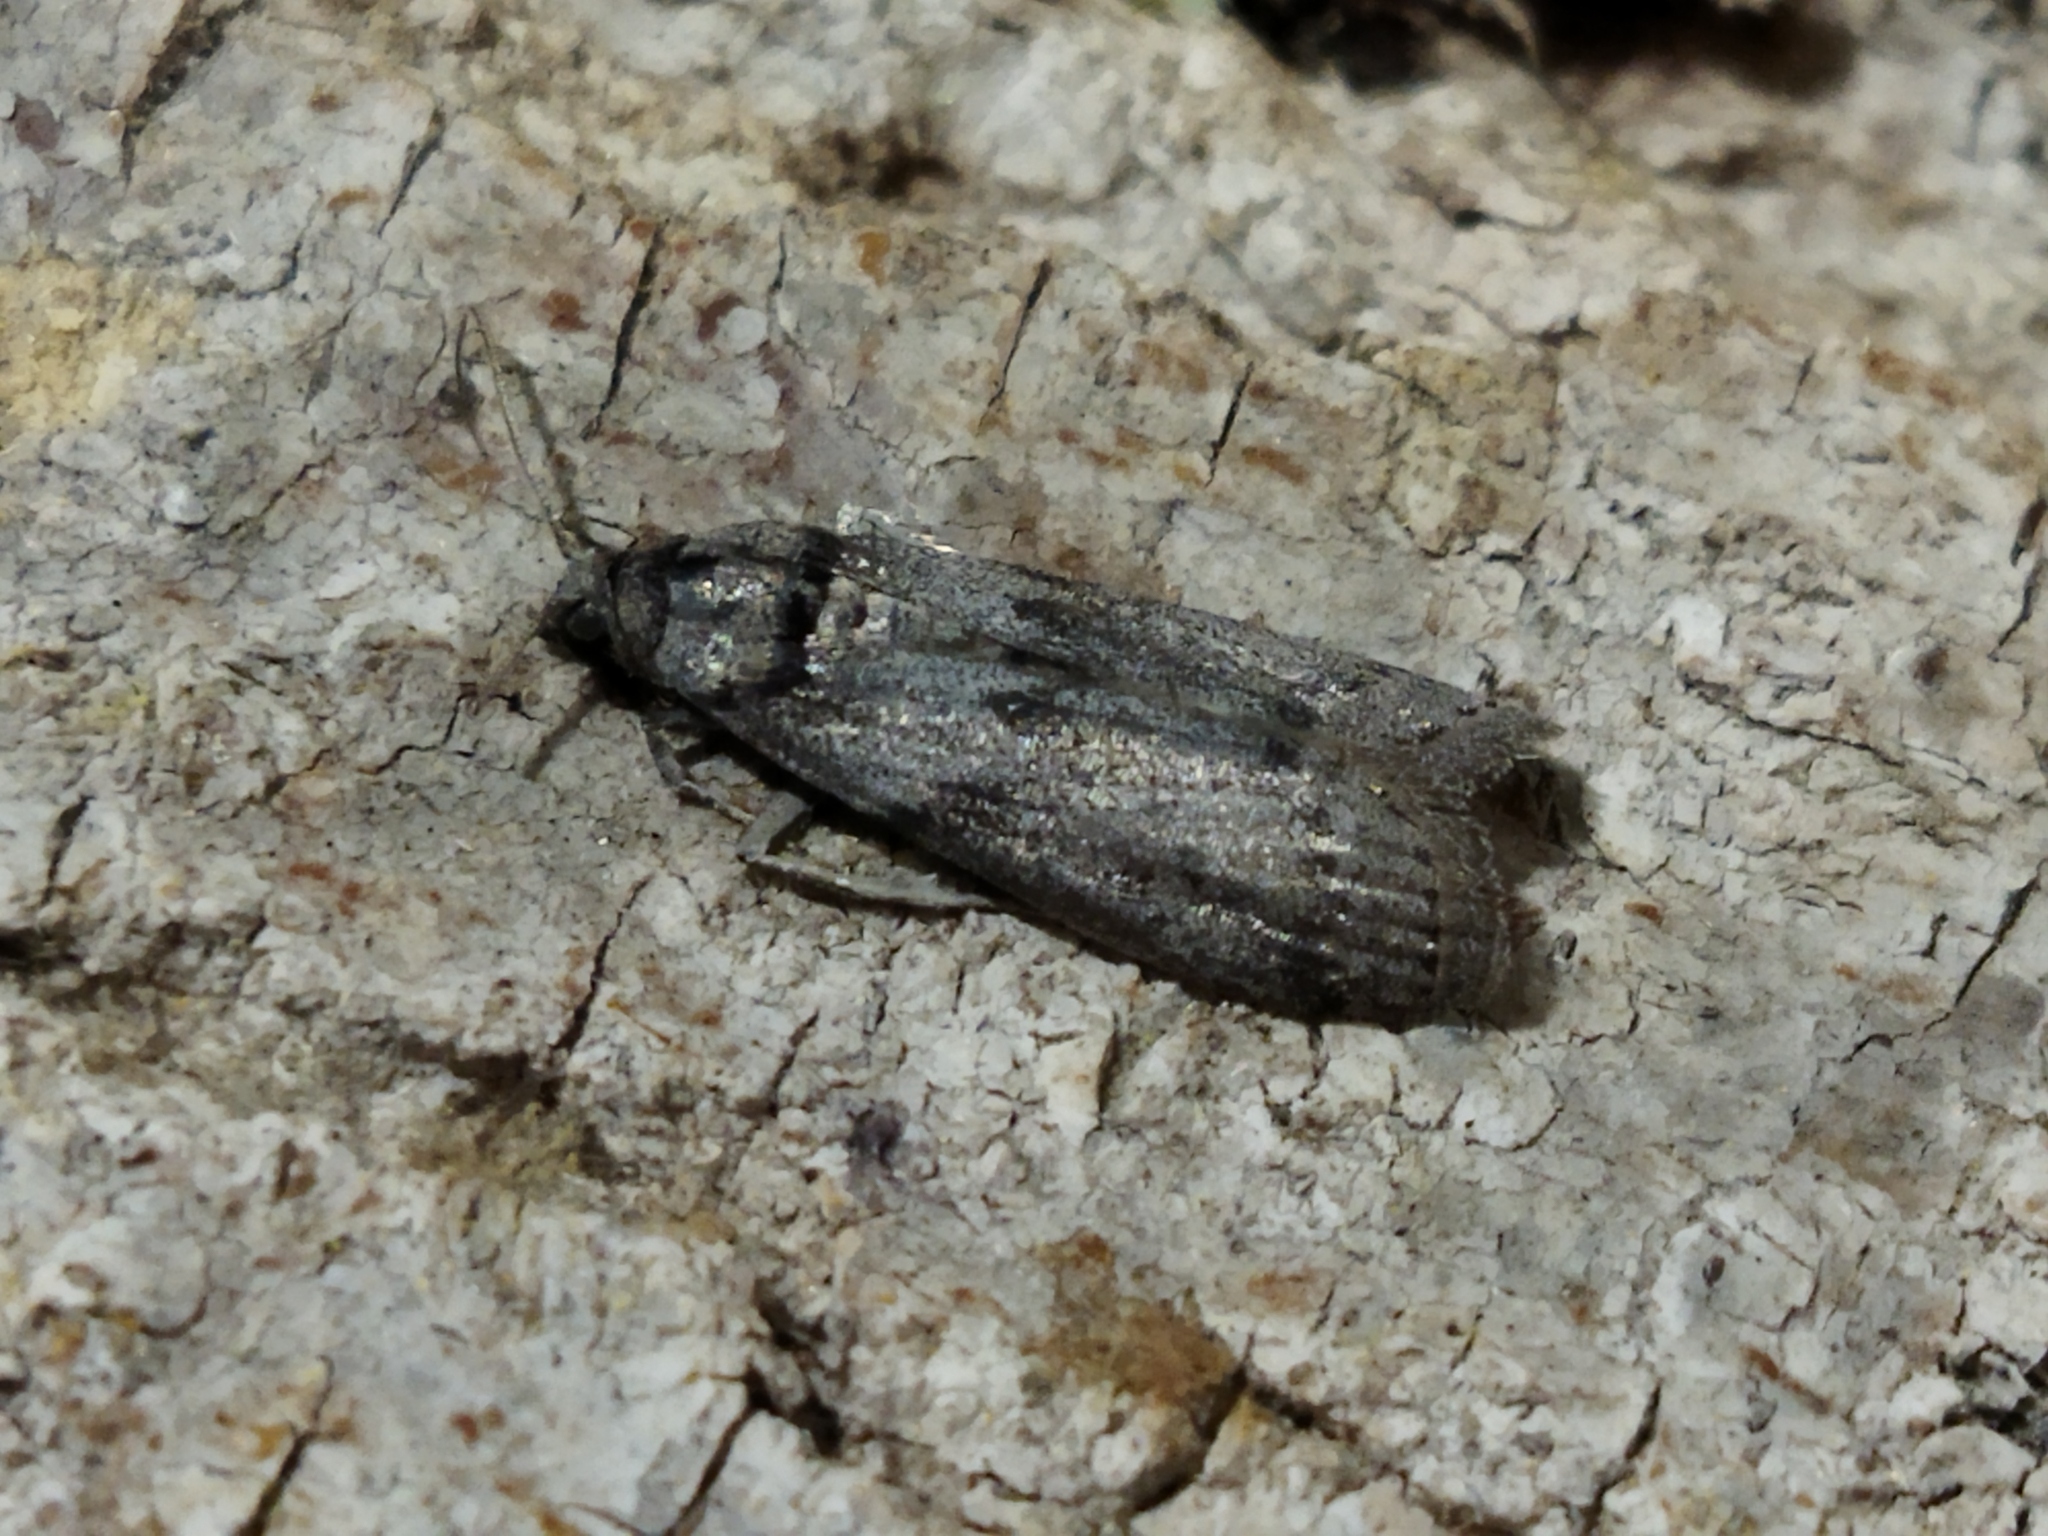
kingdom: Animalia
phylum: Arthropoda
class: Insecta
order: Lepidoptera
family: Pyralidae
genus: Ectomyelois
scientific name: Ectomyelois ceratoniae
